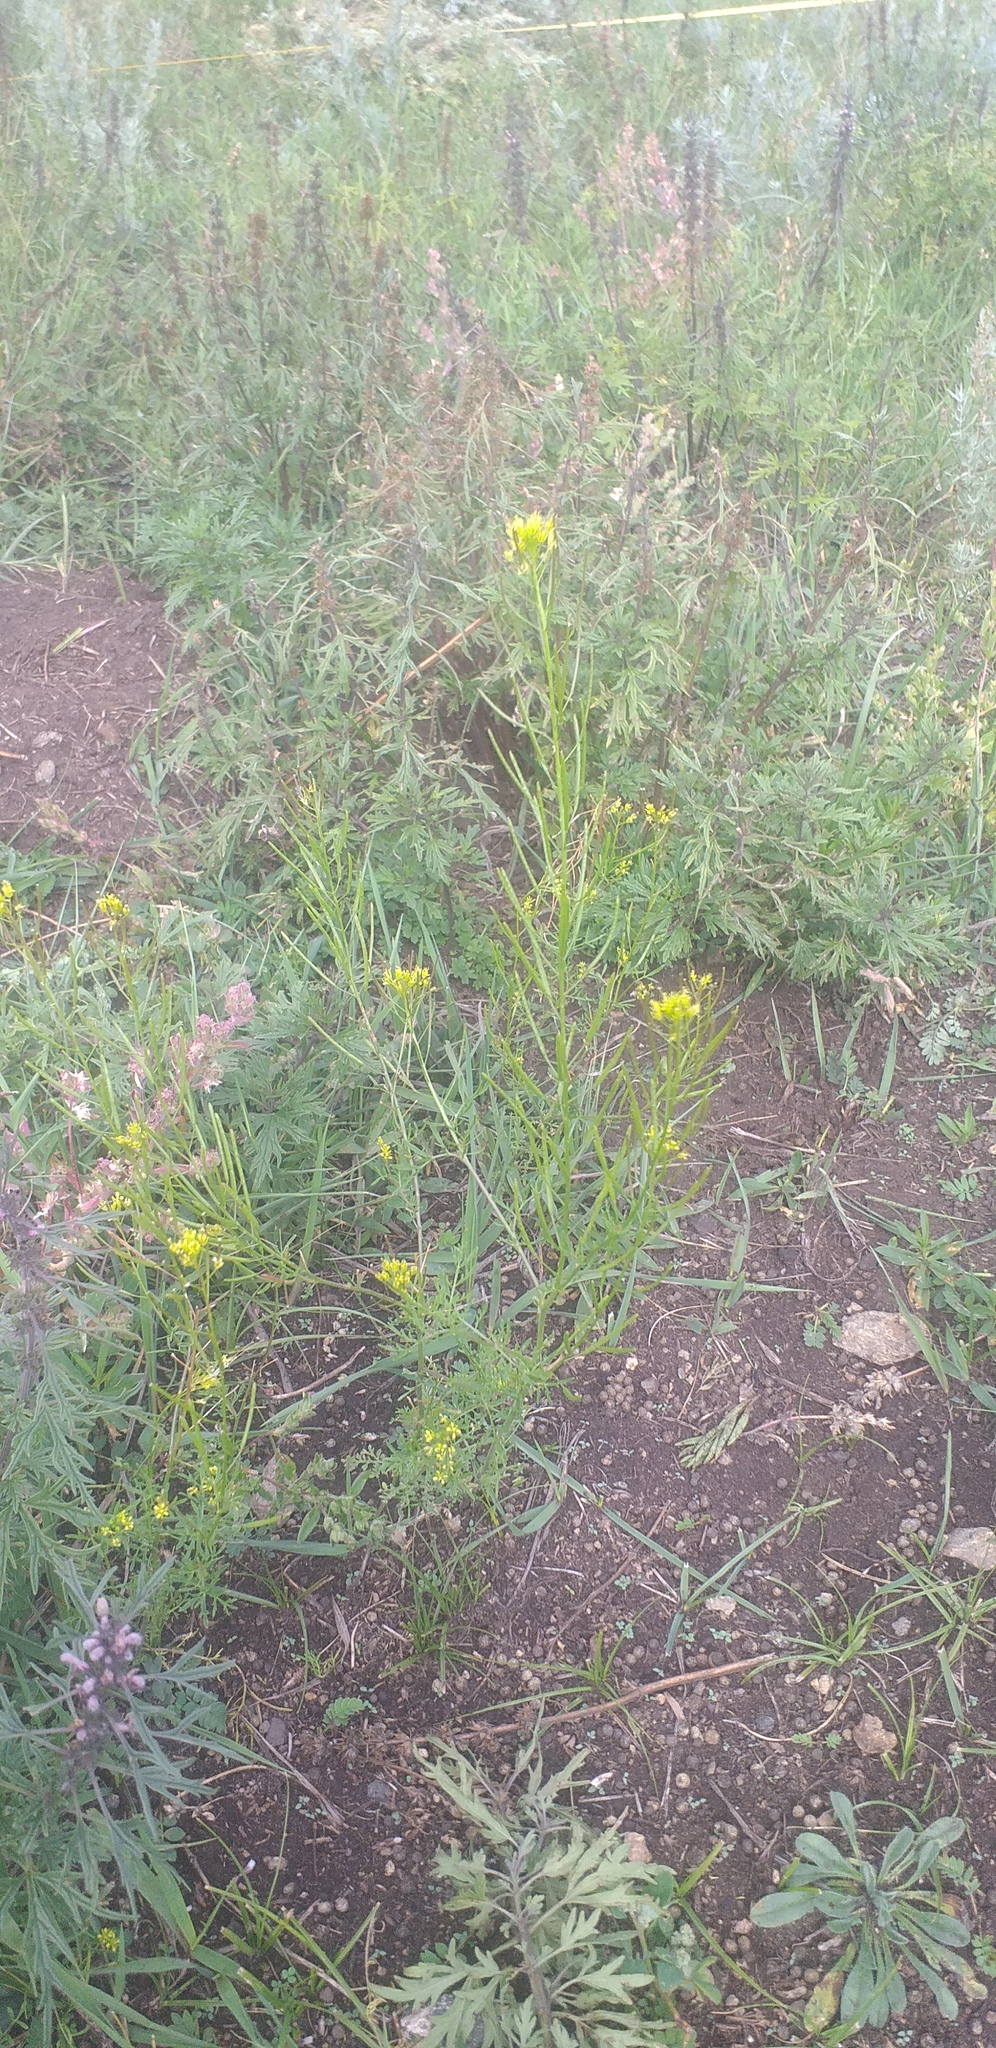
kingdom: Plantae
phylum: Tracheophyta
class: Magnoliopsida
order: Brassicales
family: Brassicaceae
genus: Descurainia
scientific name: Descurainia sophia
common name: Flixweed
